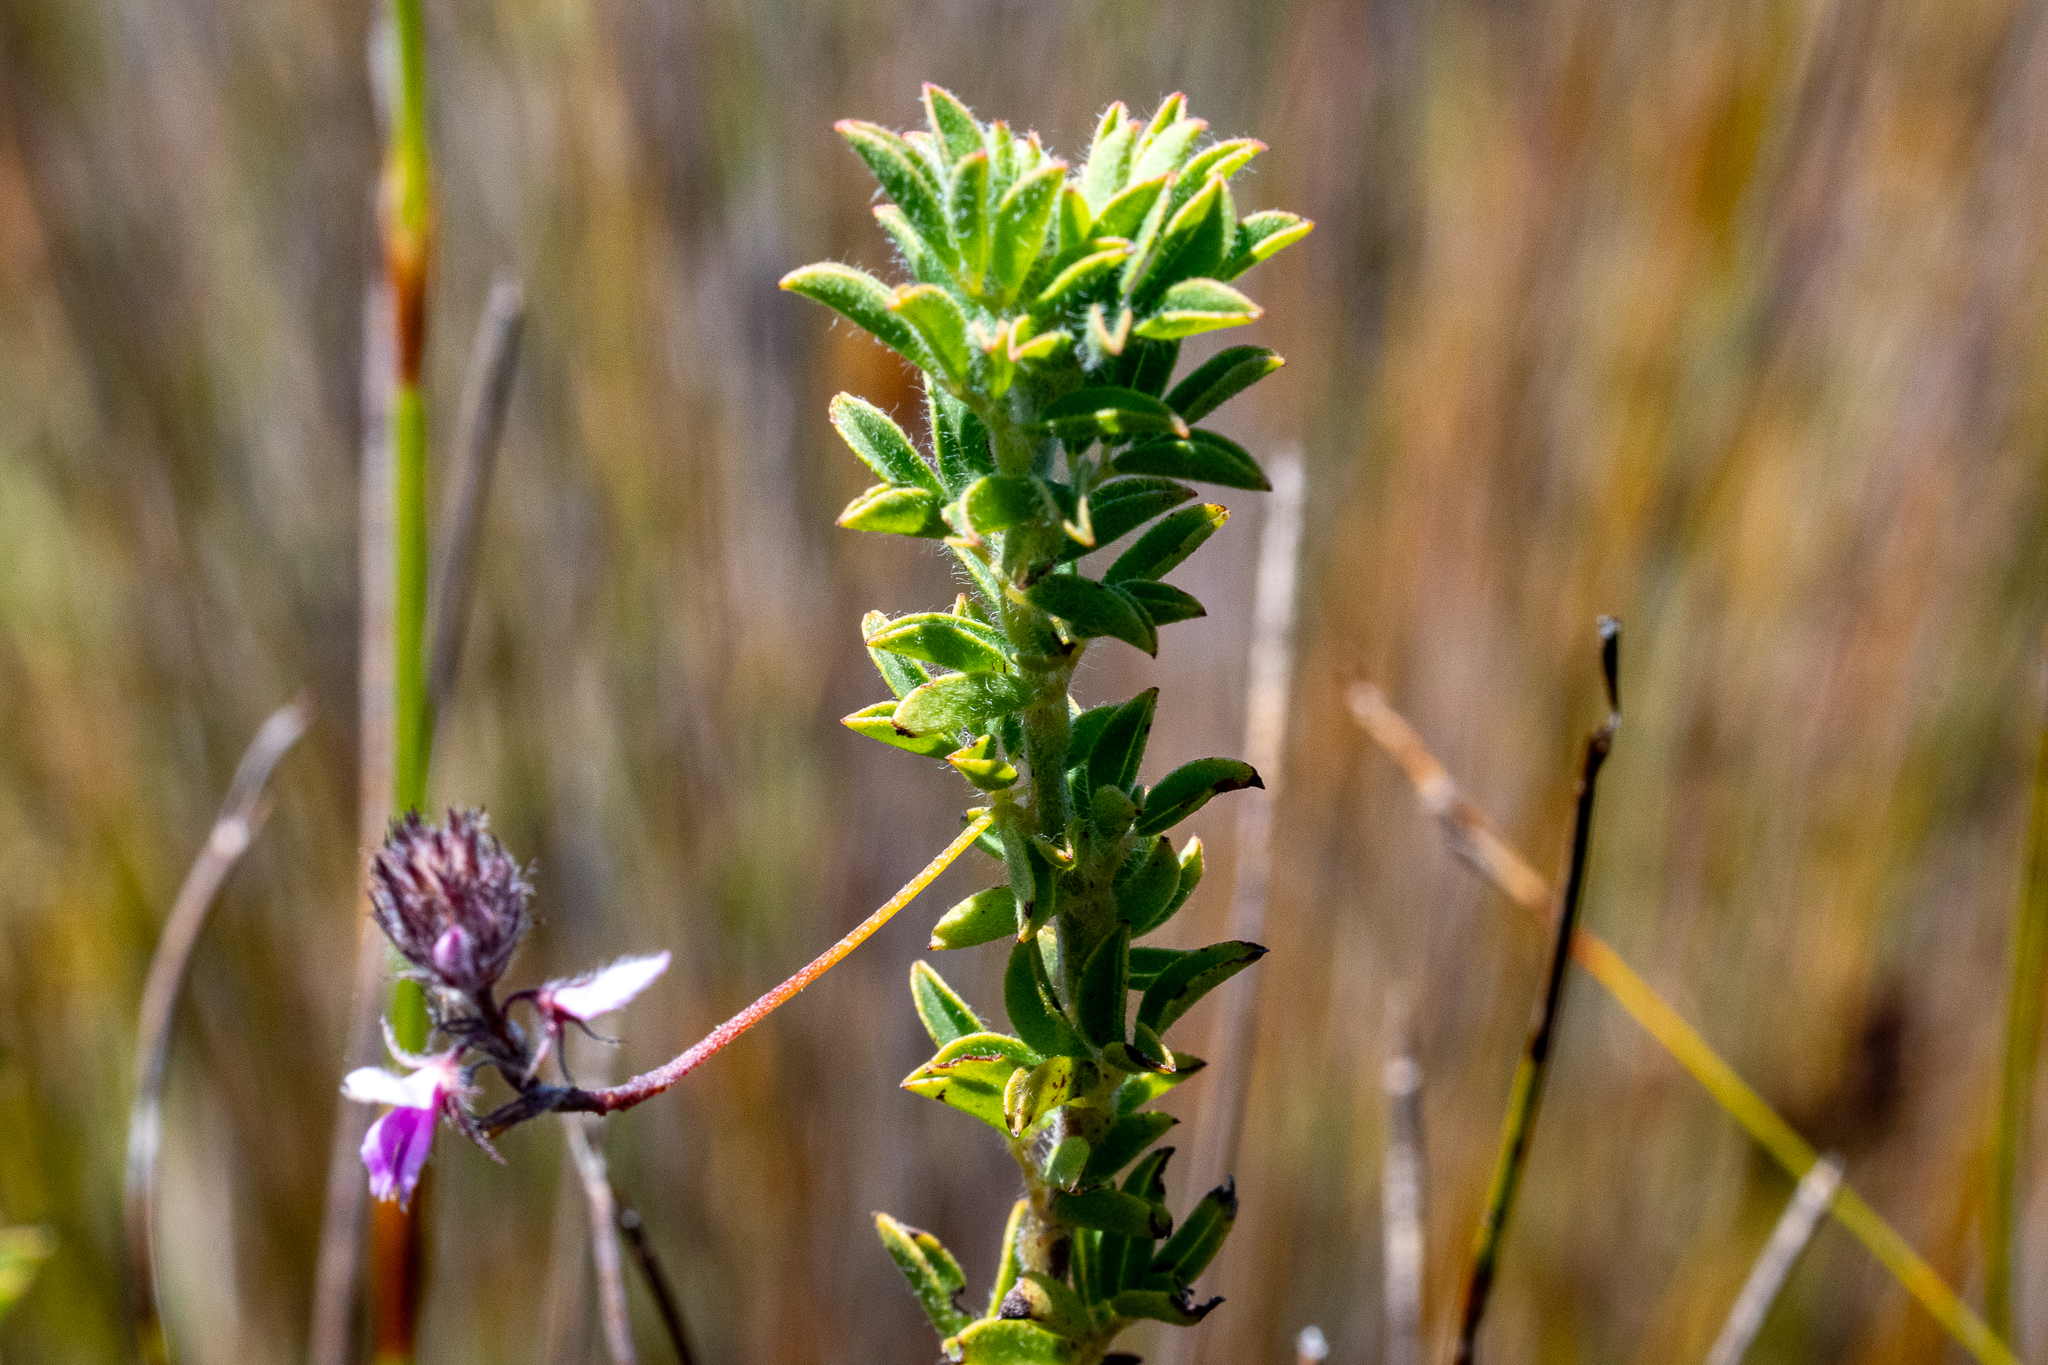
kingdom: Plantae
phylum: Tracheophyta
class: Magnoliopsida
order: Fabales
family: Fabaceae
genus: Indigofera
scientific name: Indigofera alopecuroides
